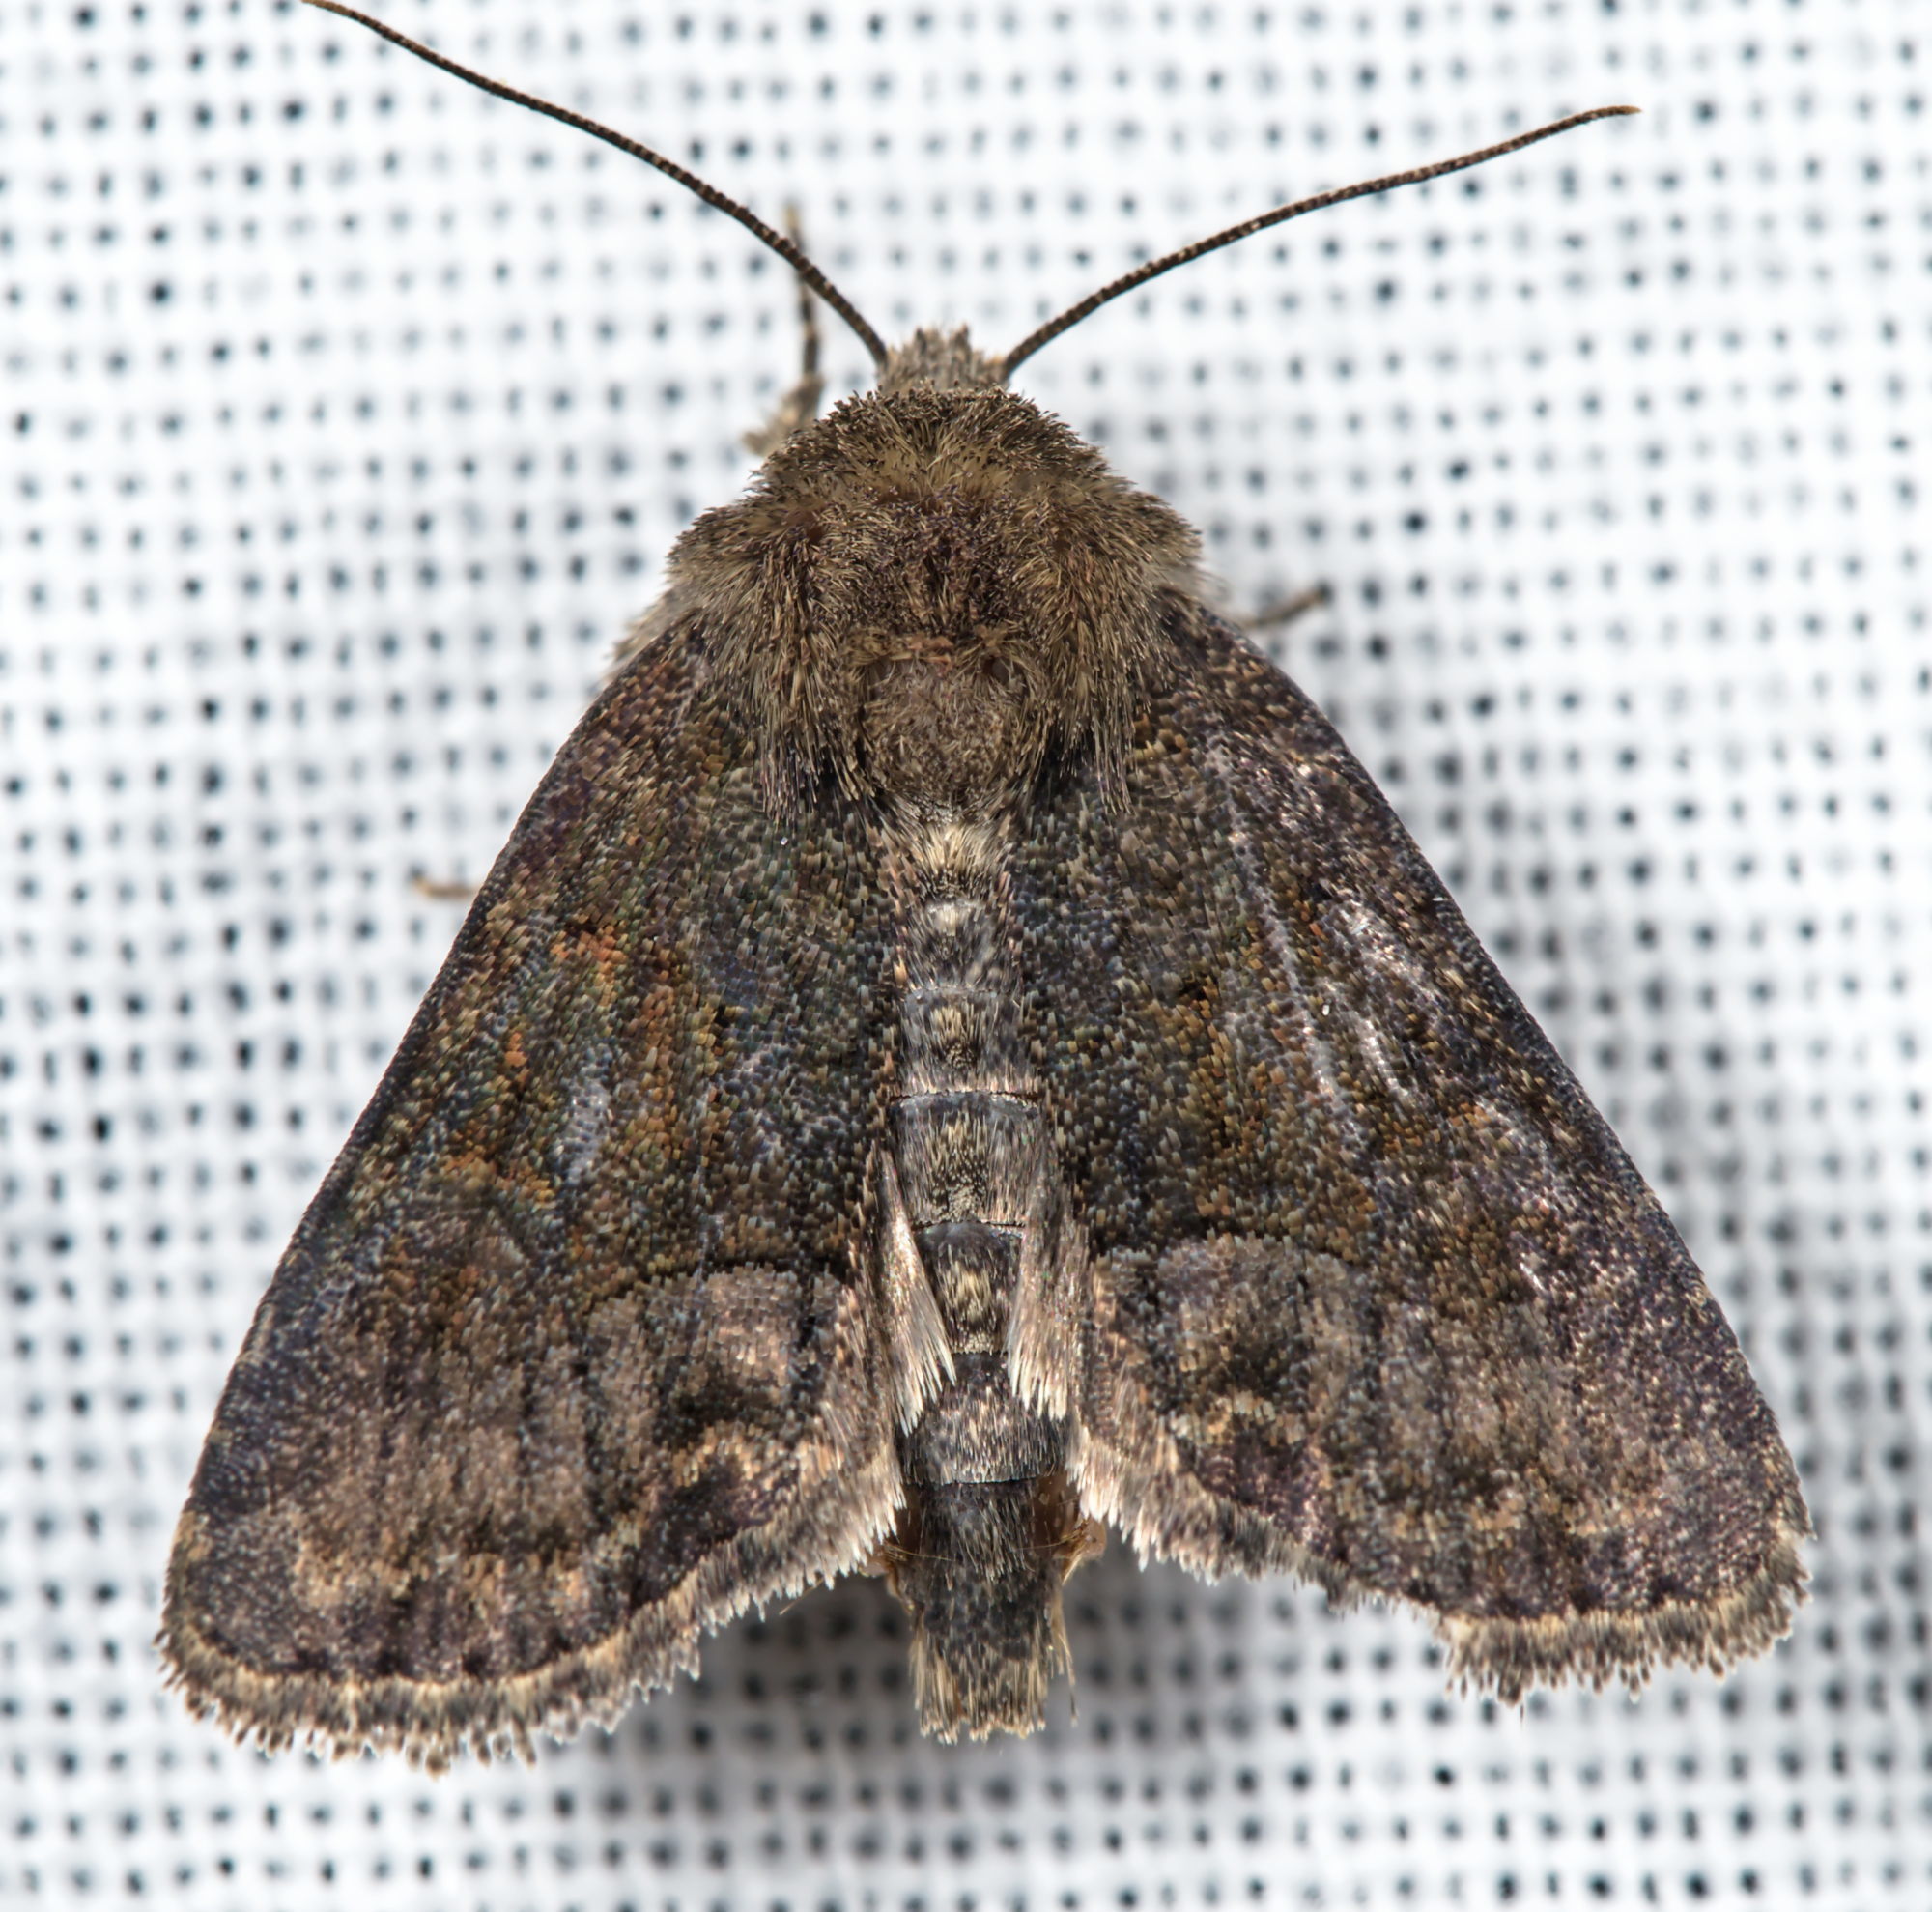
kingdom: Animalia
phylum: Arthropoda
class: Insecta
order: Lepidoptera
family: Noctuidae
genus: Oligia
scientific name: Oligia latruncula
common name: Tawny marbled minor
